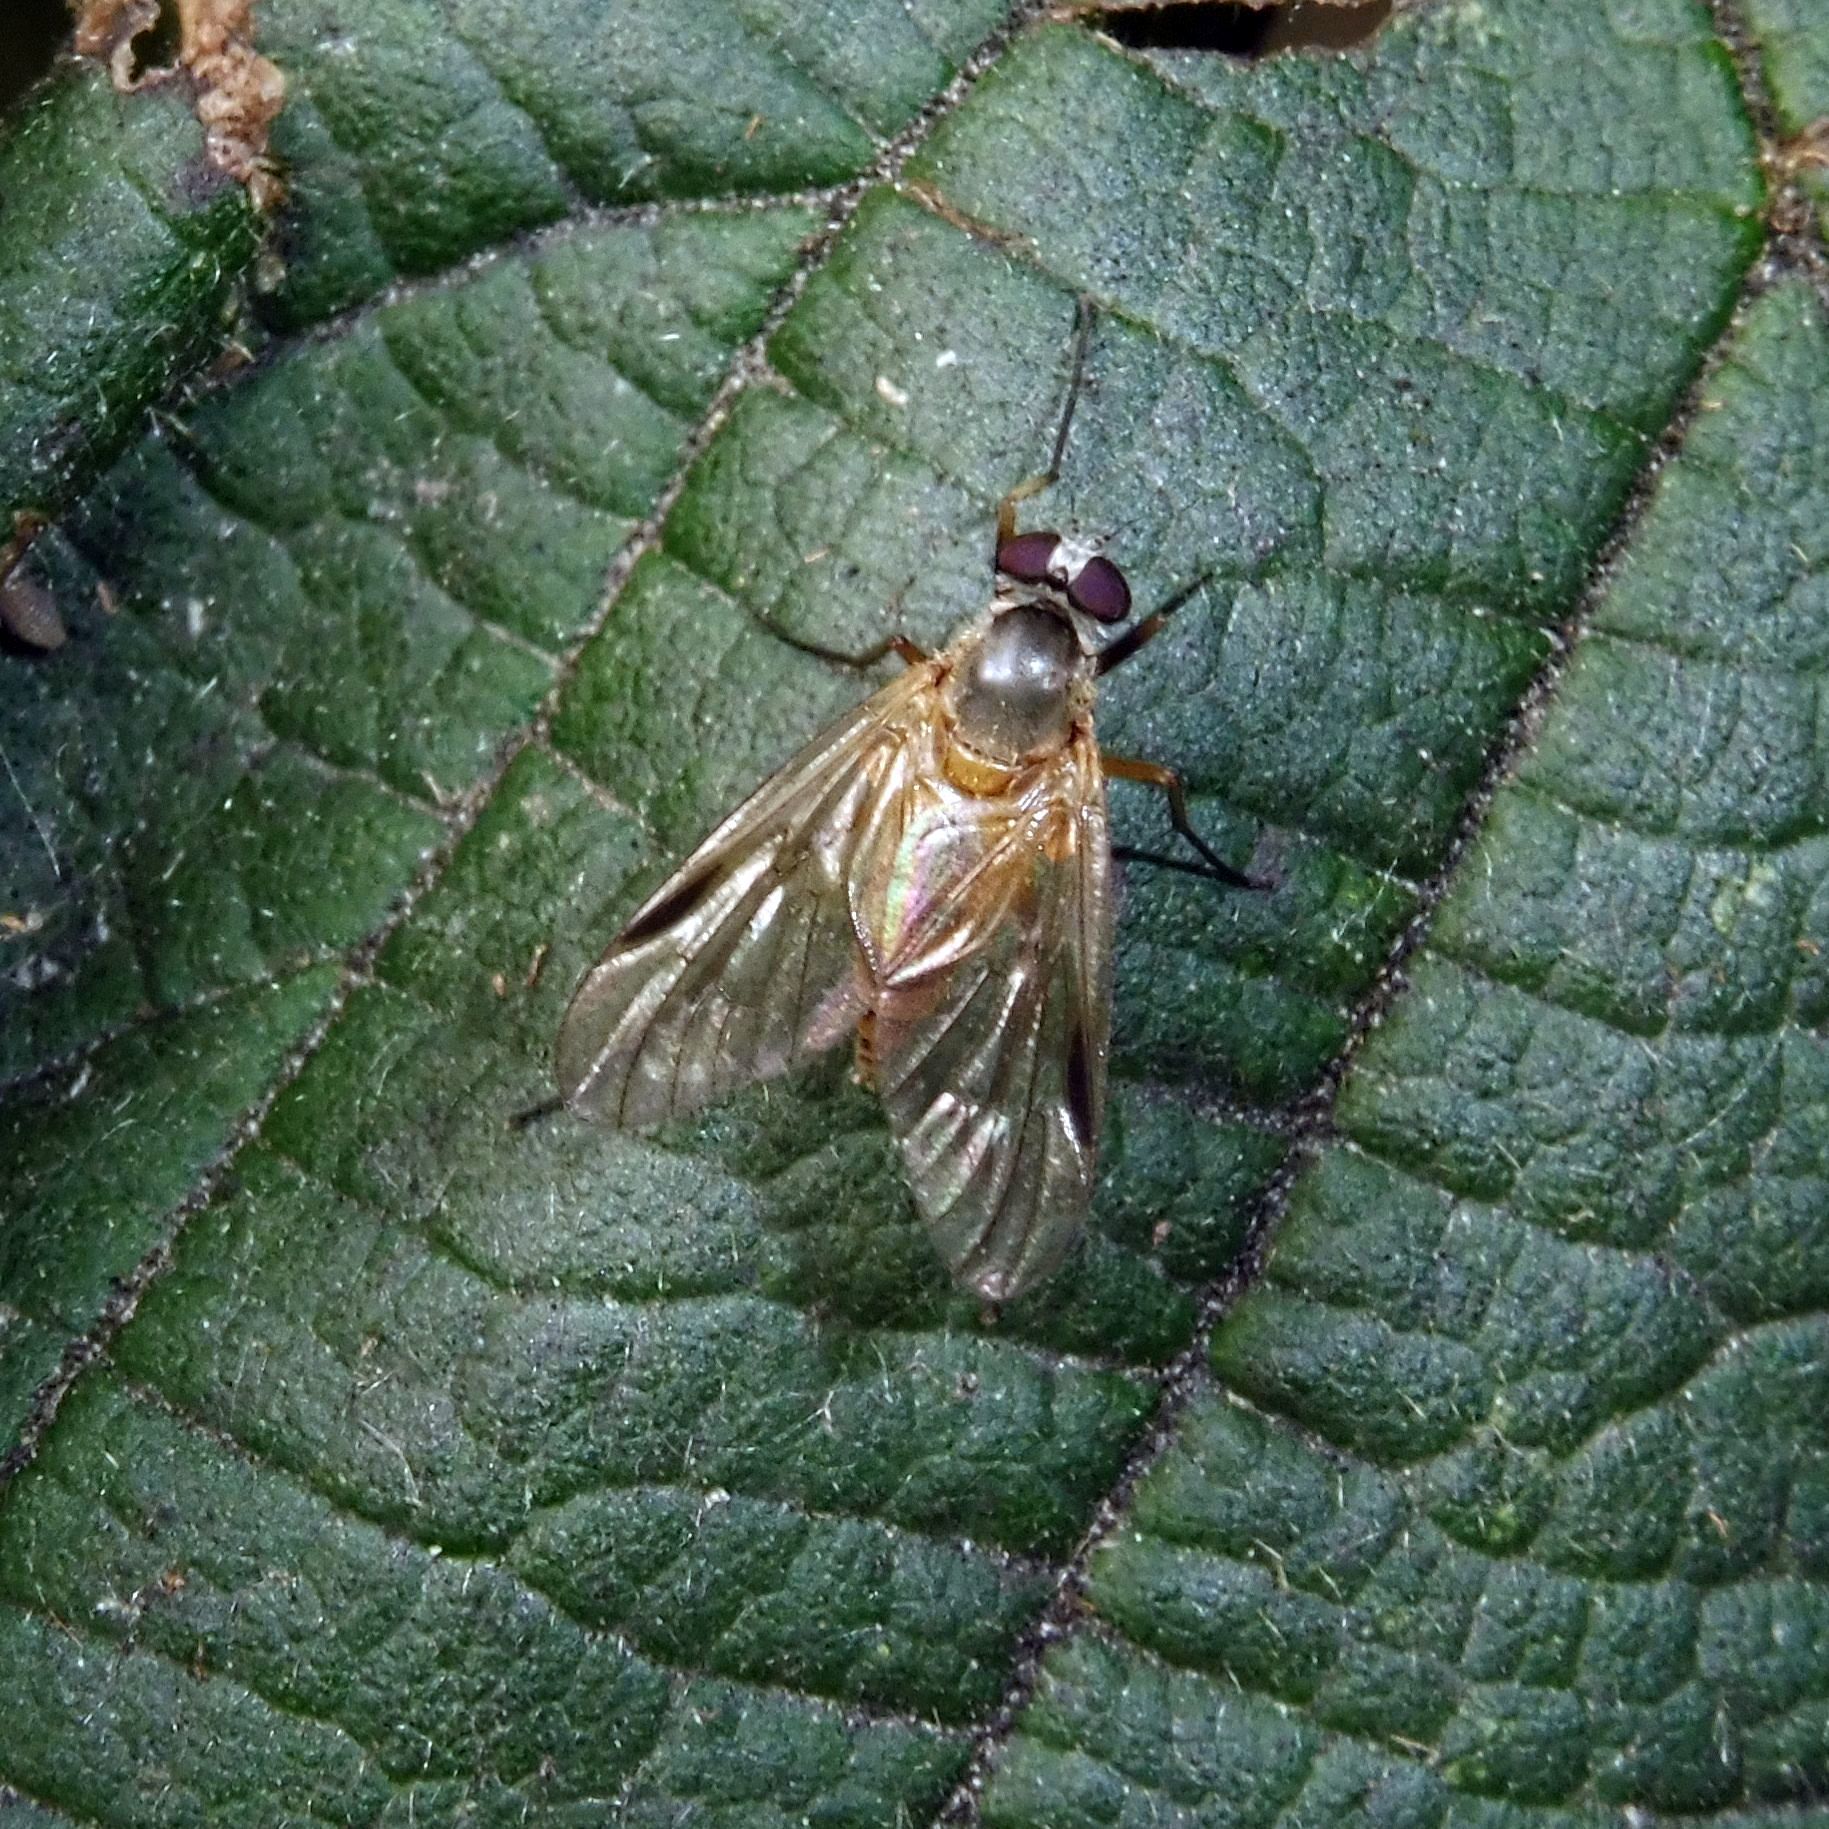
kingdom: Animalia
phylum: Arthropoda
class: Insecta
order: Diptera
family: Rhagionidae
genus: Rhagio
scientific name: Rhagio lineola
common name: Small fleck-winged snipefly
